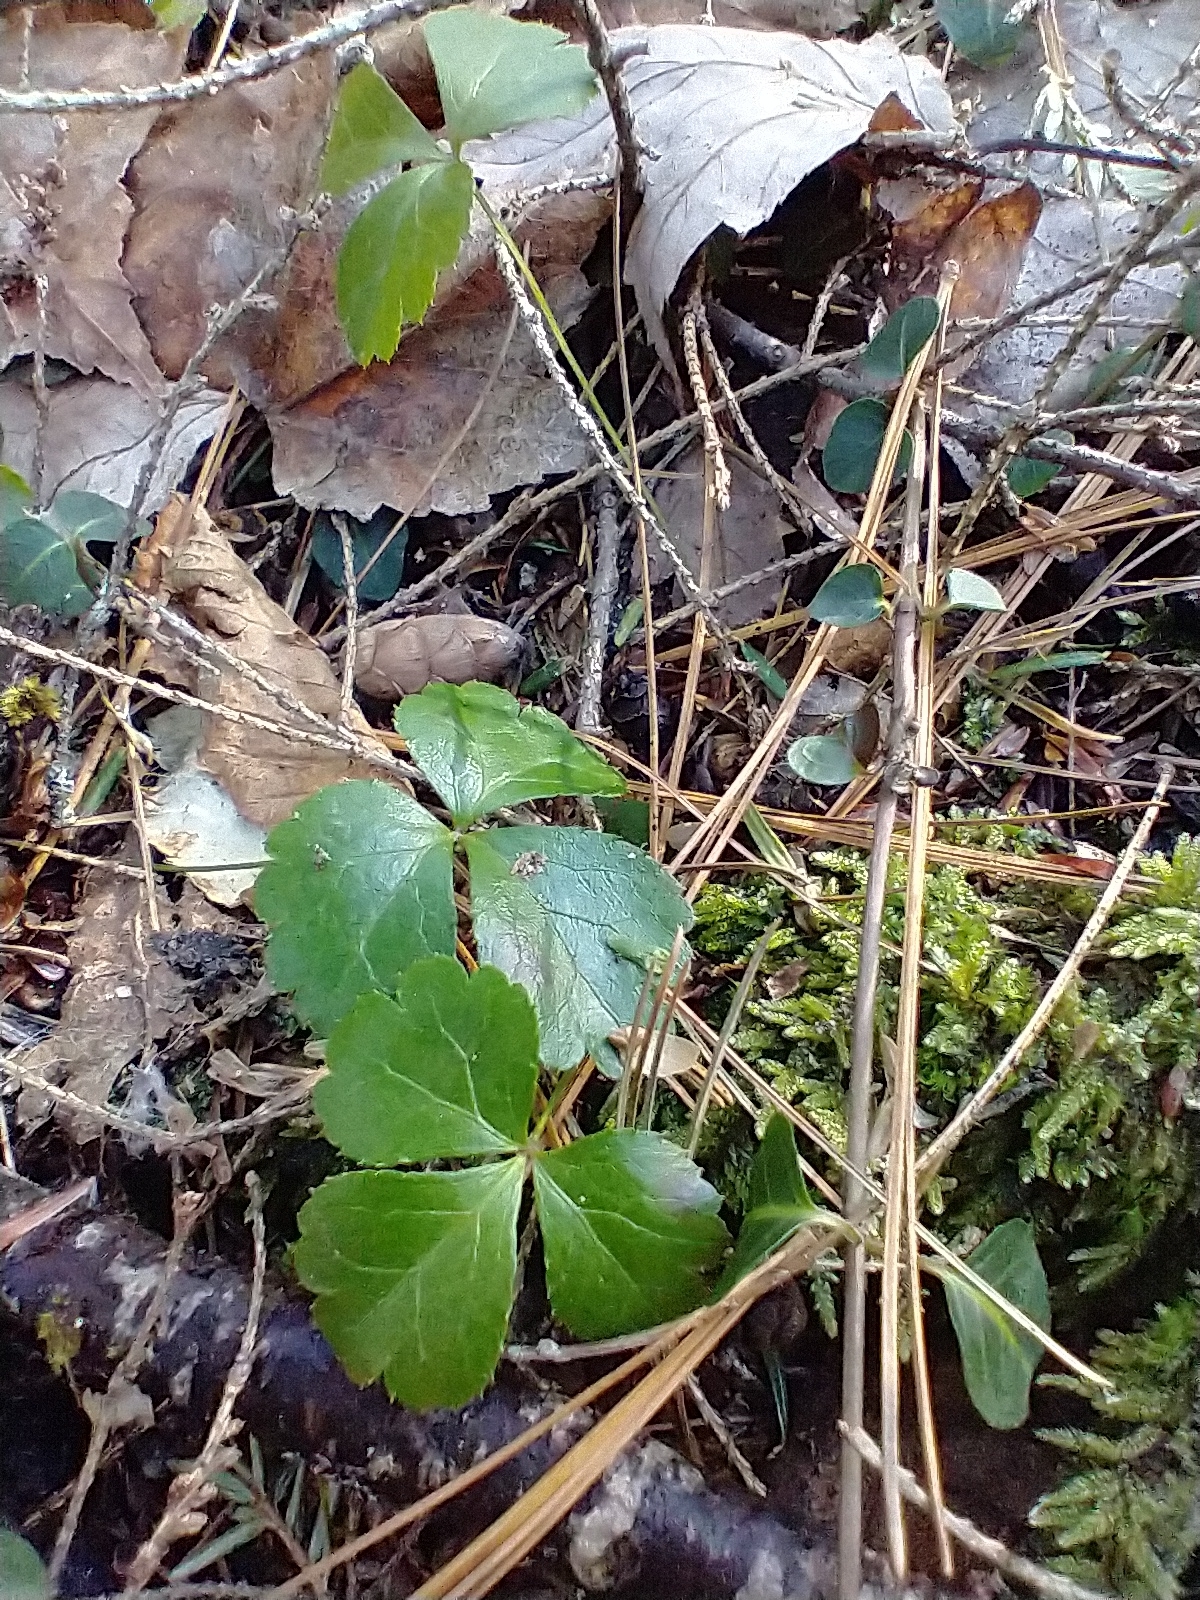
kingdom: Plantae
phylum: Tracheophyta
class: Magnoliopsida
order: Ranunculales
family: Ranunculaceae
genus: Coptis
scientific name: Coptis trifolia
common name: Canker-root
